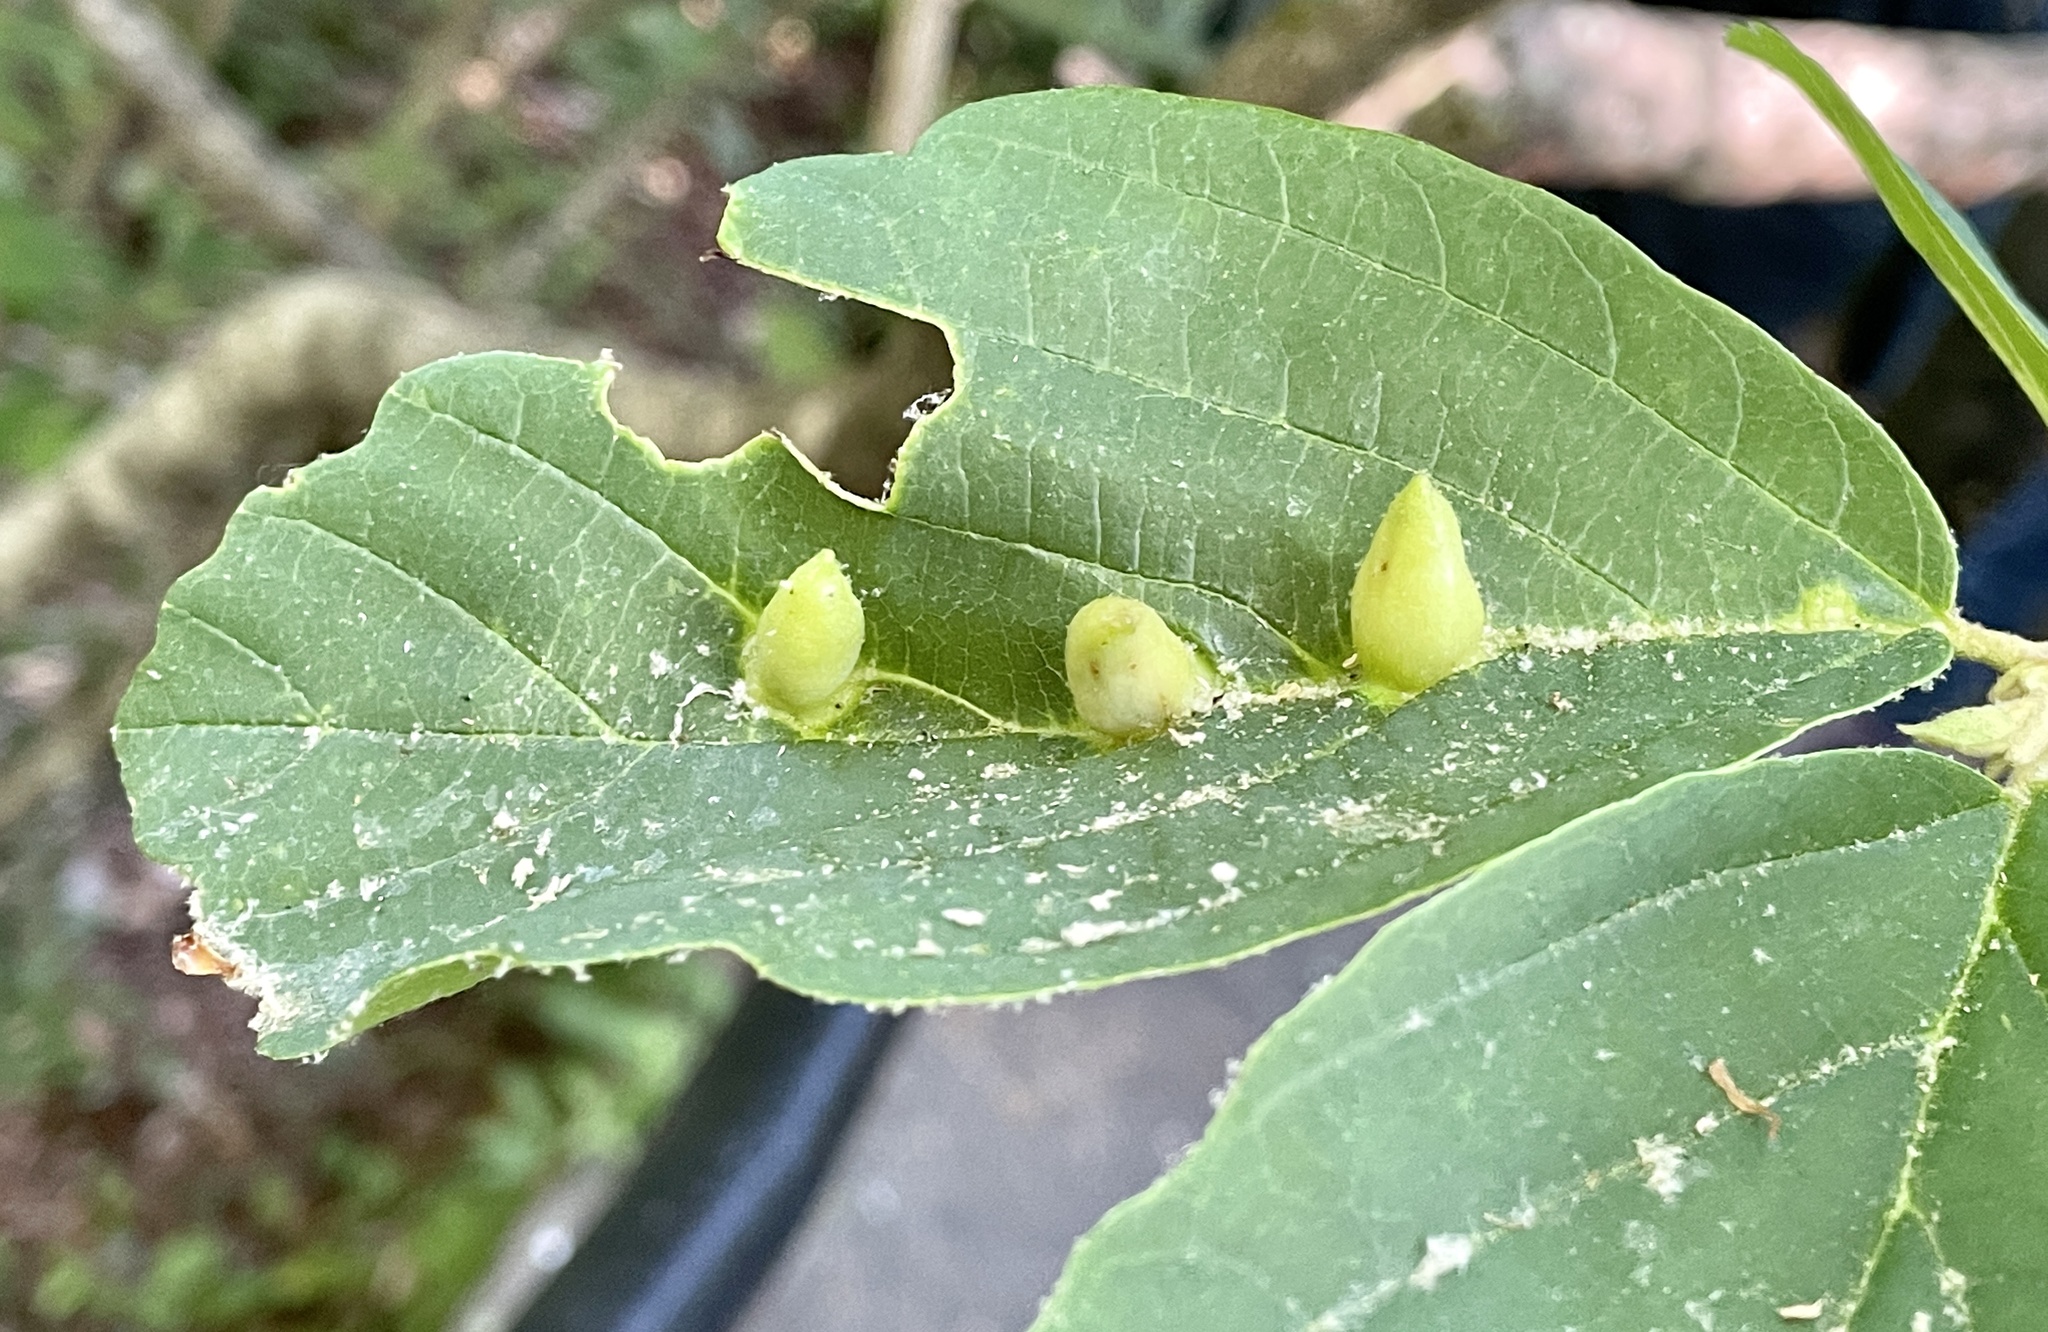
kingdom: Animalia
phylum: Arthropoda
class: Insecta
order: Hemiptera
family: Aphididae
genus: Hormaphis
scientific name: Hormaphis hamamelidis
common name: Witch-hazel cone gall aphid
